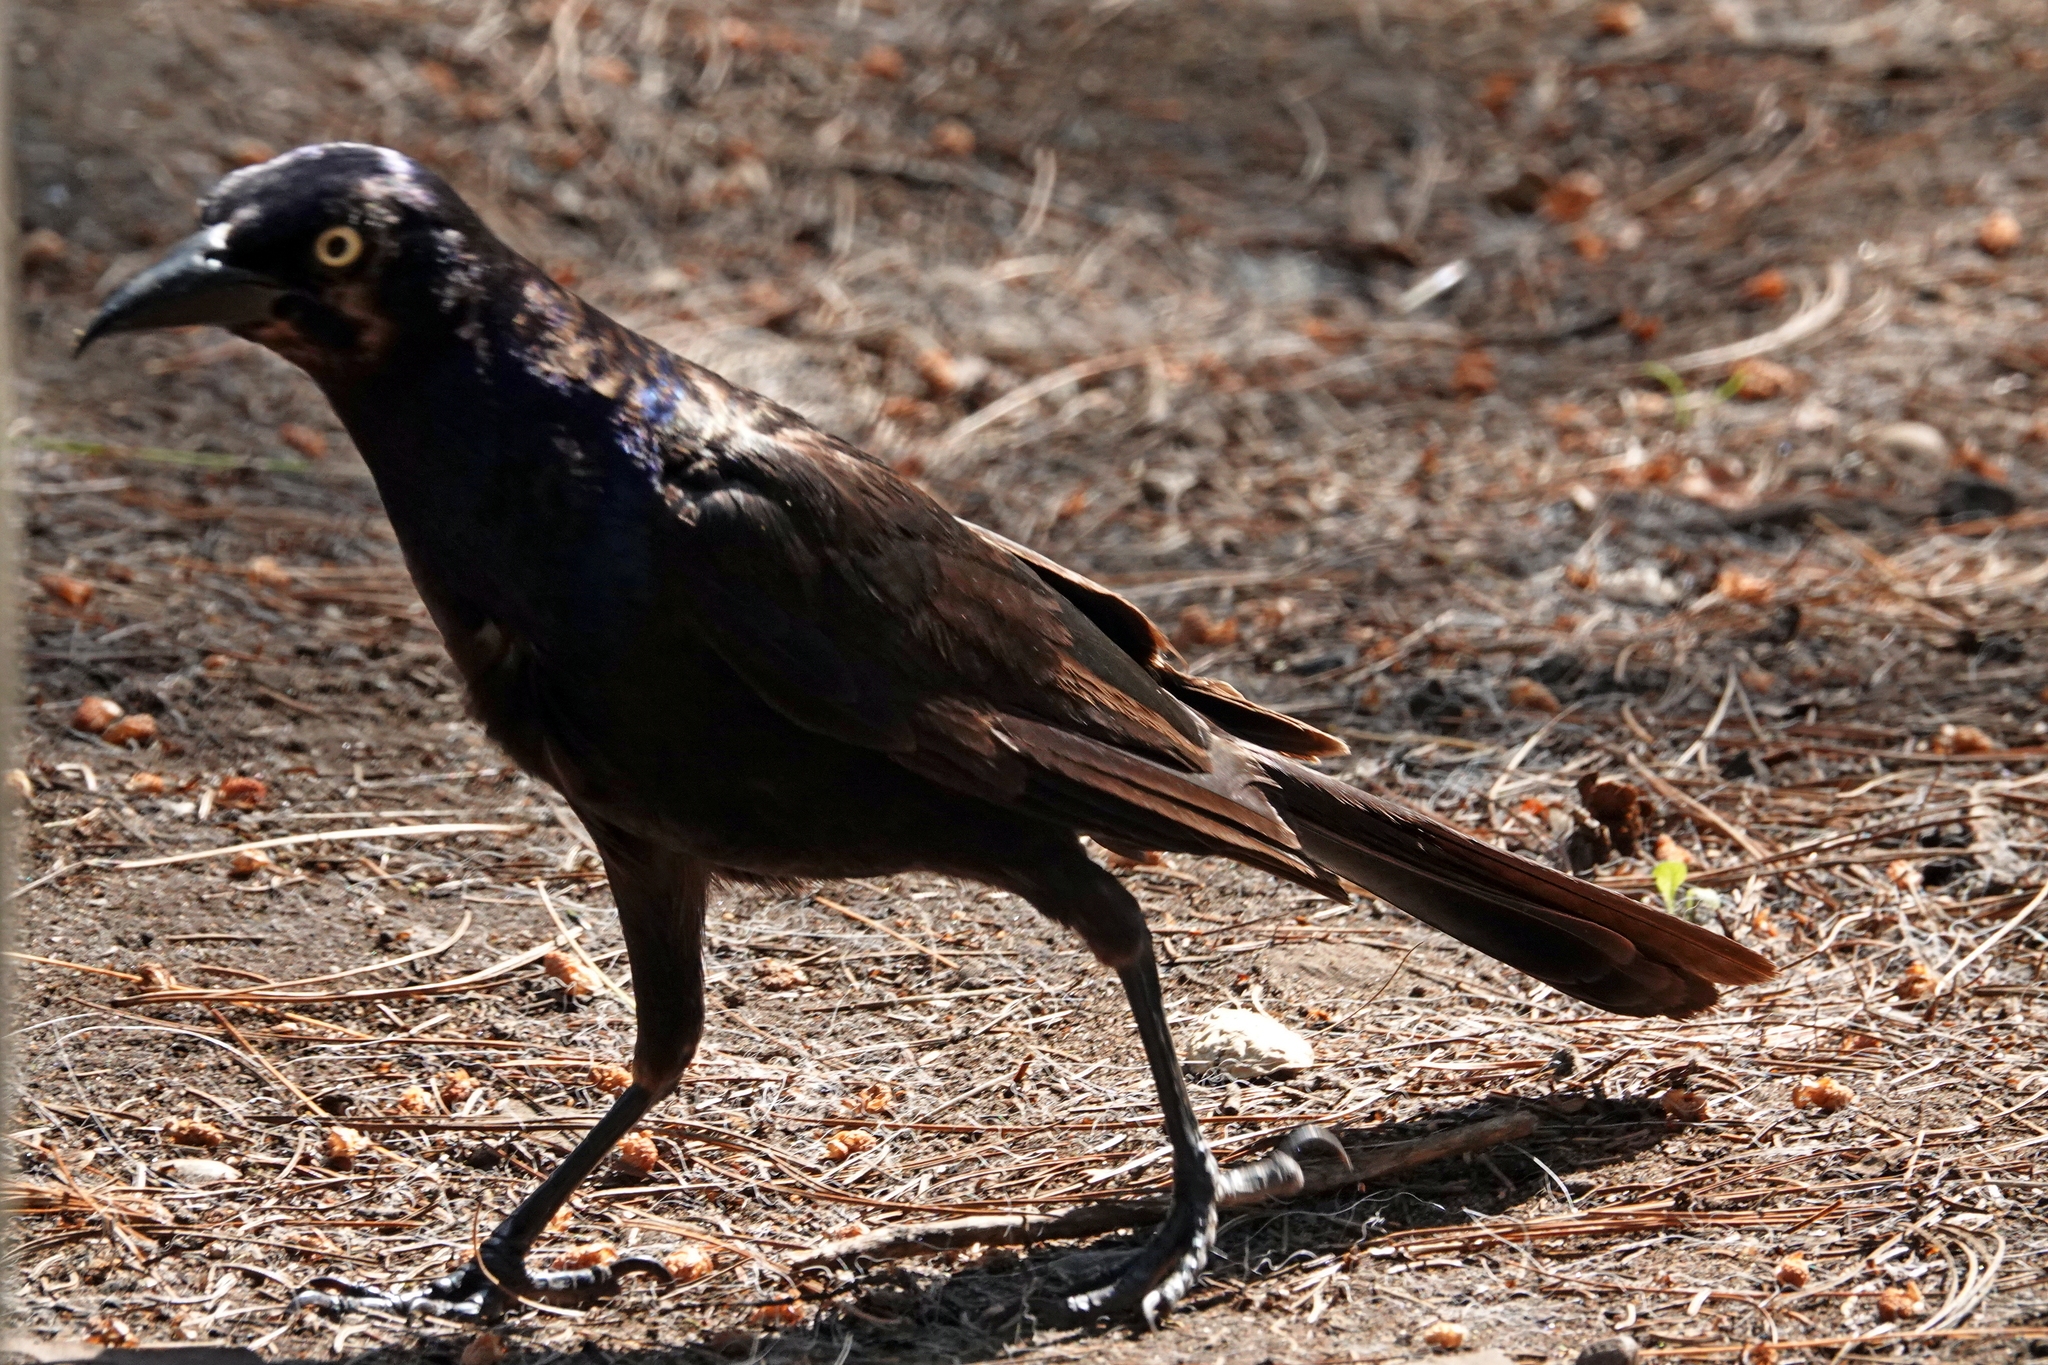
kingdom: Animalia
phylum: Chordata
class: Aves
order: Passeriformes
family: Icteridae
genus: Quiscalus
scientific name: Quiscalus quiscula
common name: Common grackle
